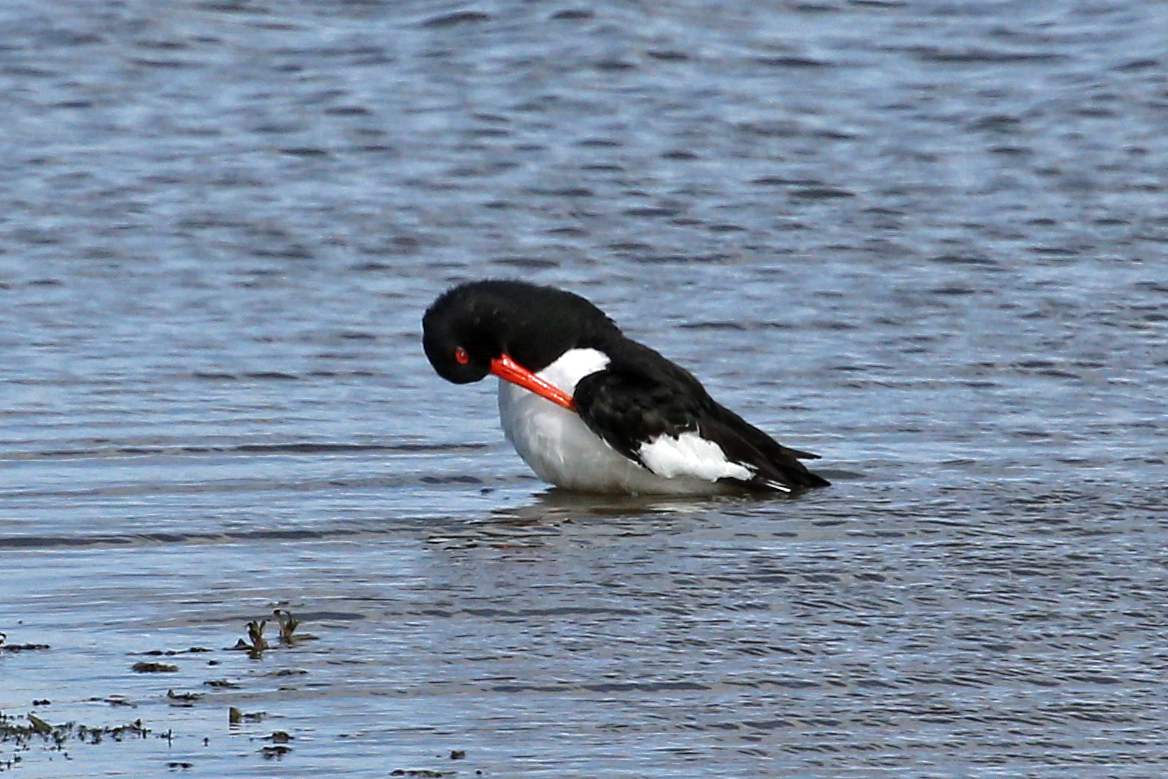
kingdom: Animalia
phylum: Chordata
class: Aves
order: Charadriiformes
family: Haematopodidae
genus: Haematopus
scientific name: Haematopus ostralegus
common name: Eurasian oystercatcher
